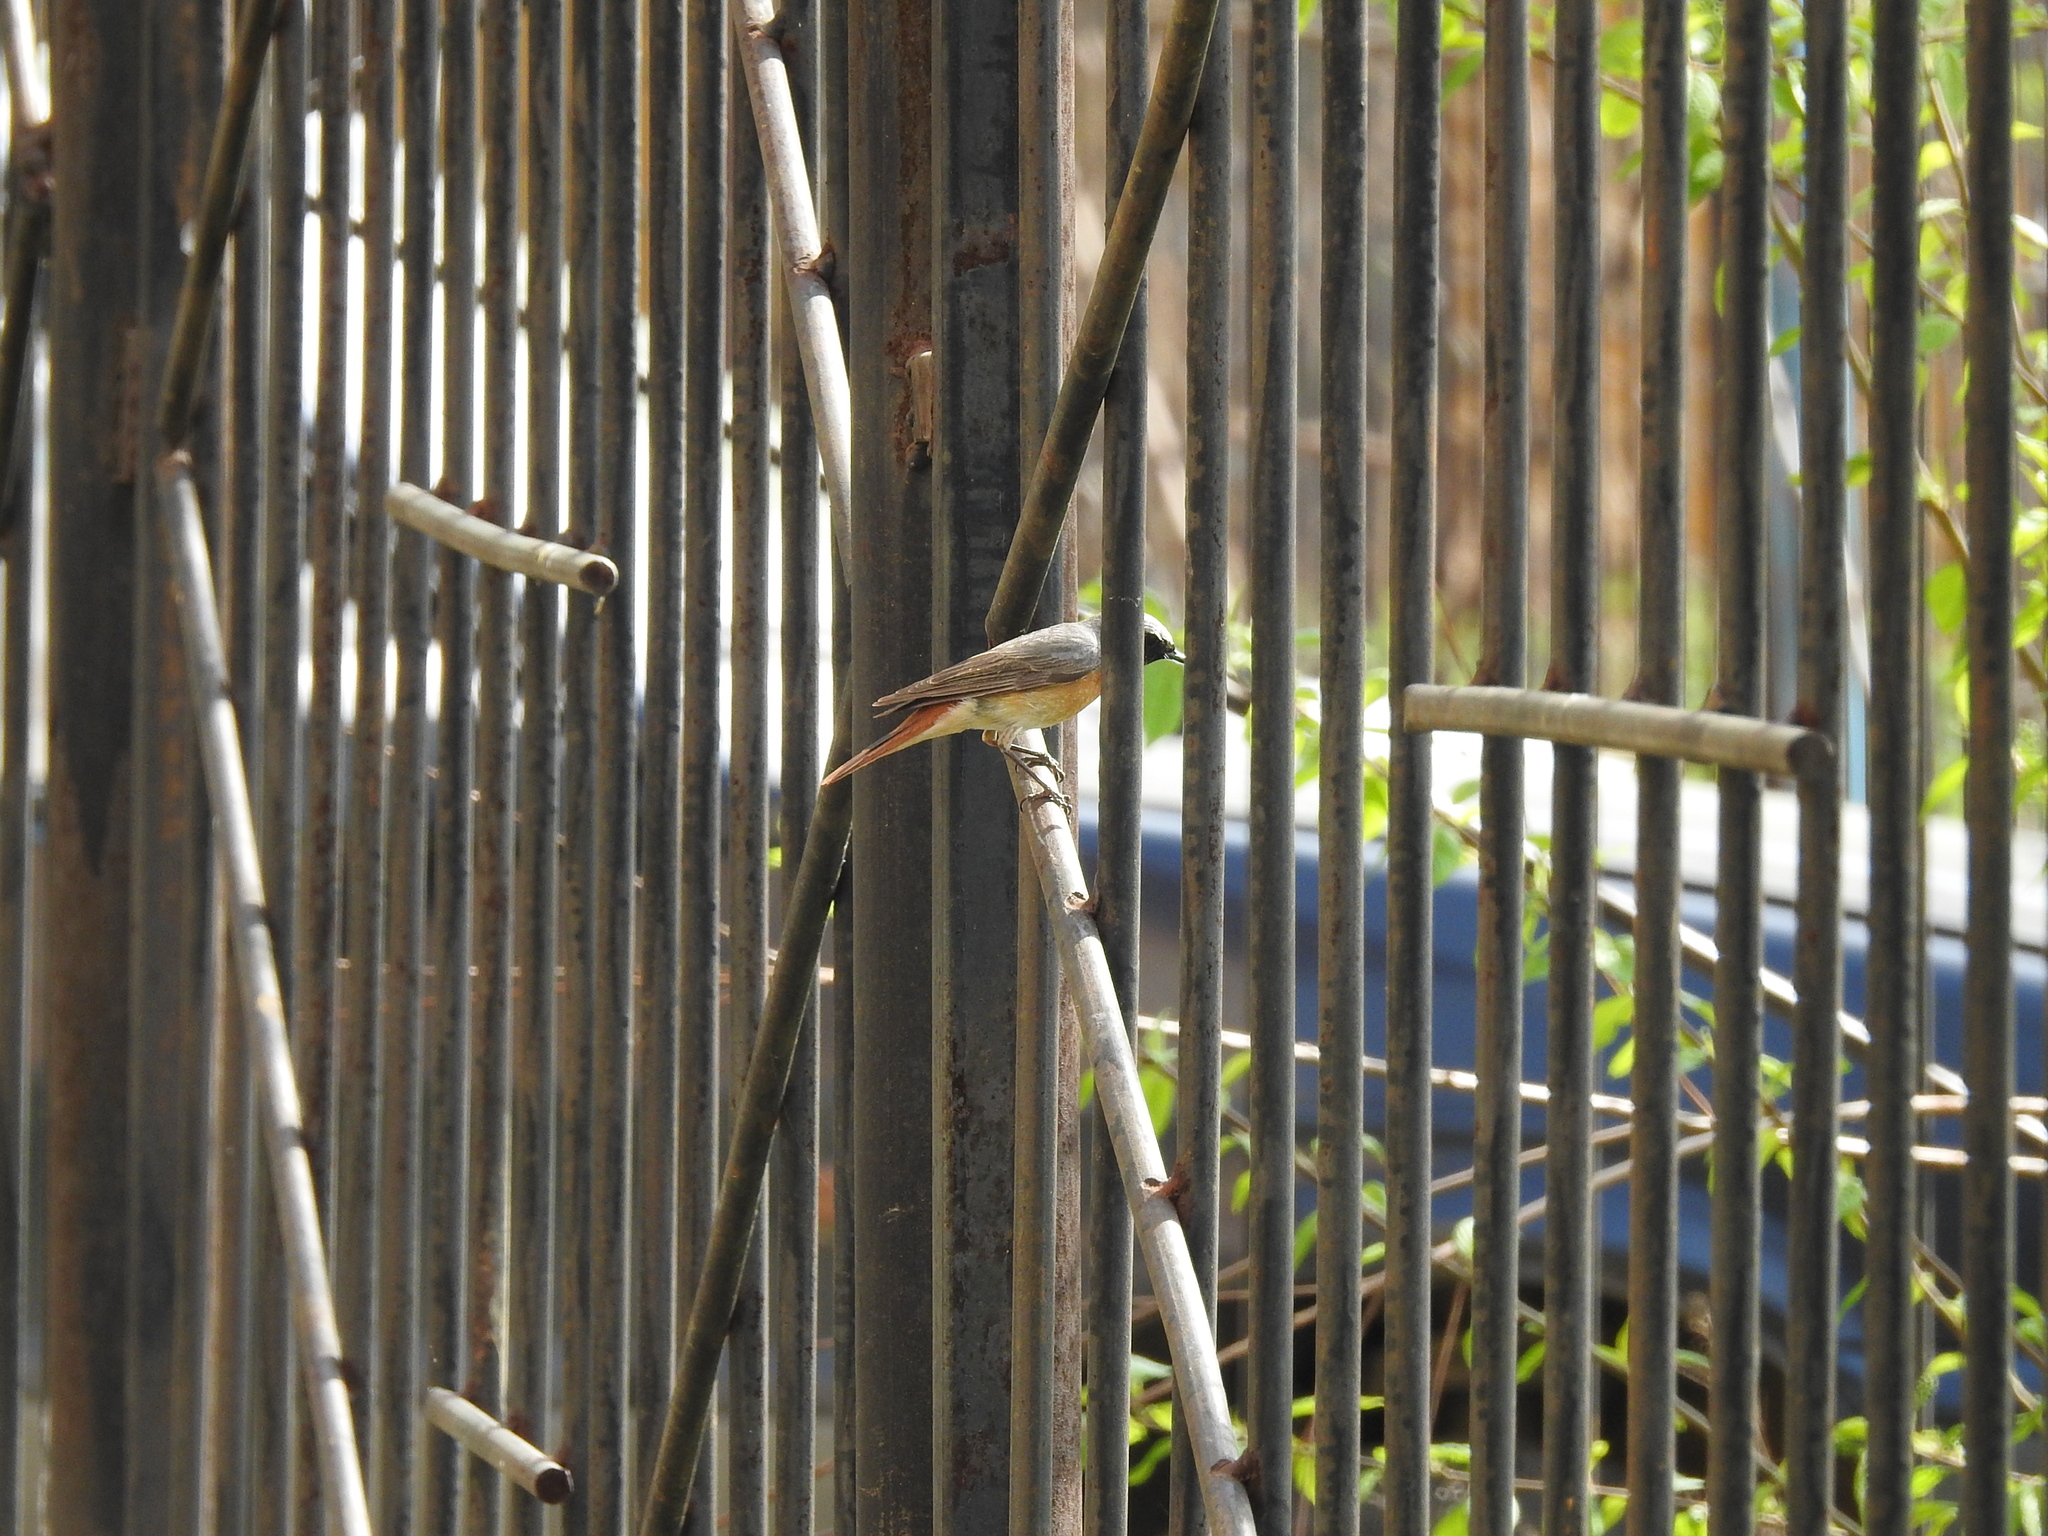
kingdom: Animalia
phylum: Chordata
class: Aves
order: Passeriformes
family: Muscicapidae
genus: Phoenicurus
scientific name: Phoenicurus phoenicurus
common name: Common redstart
